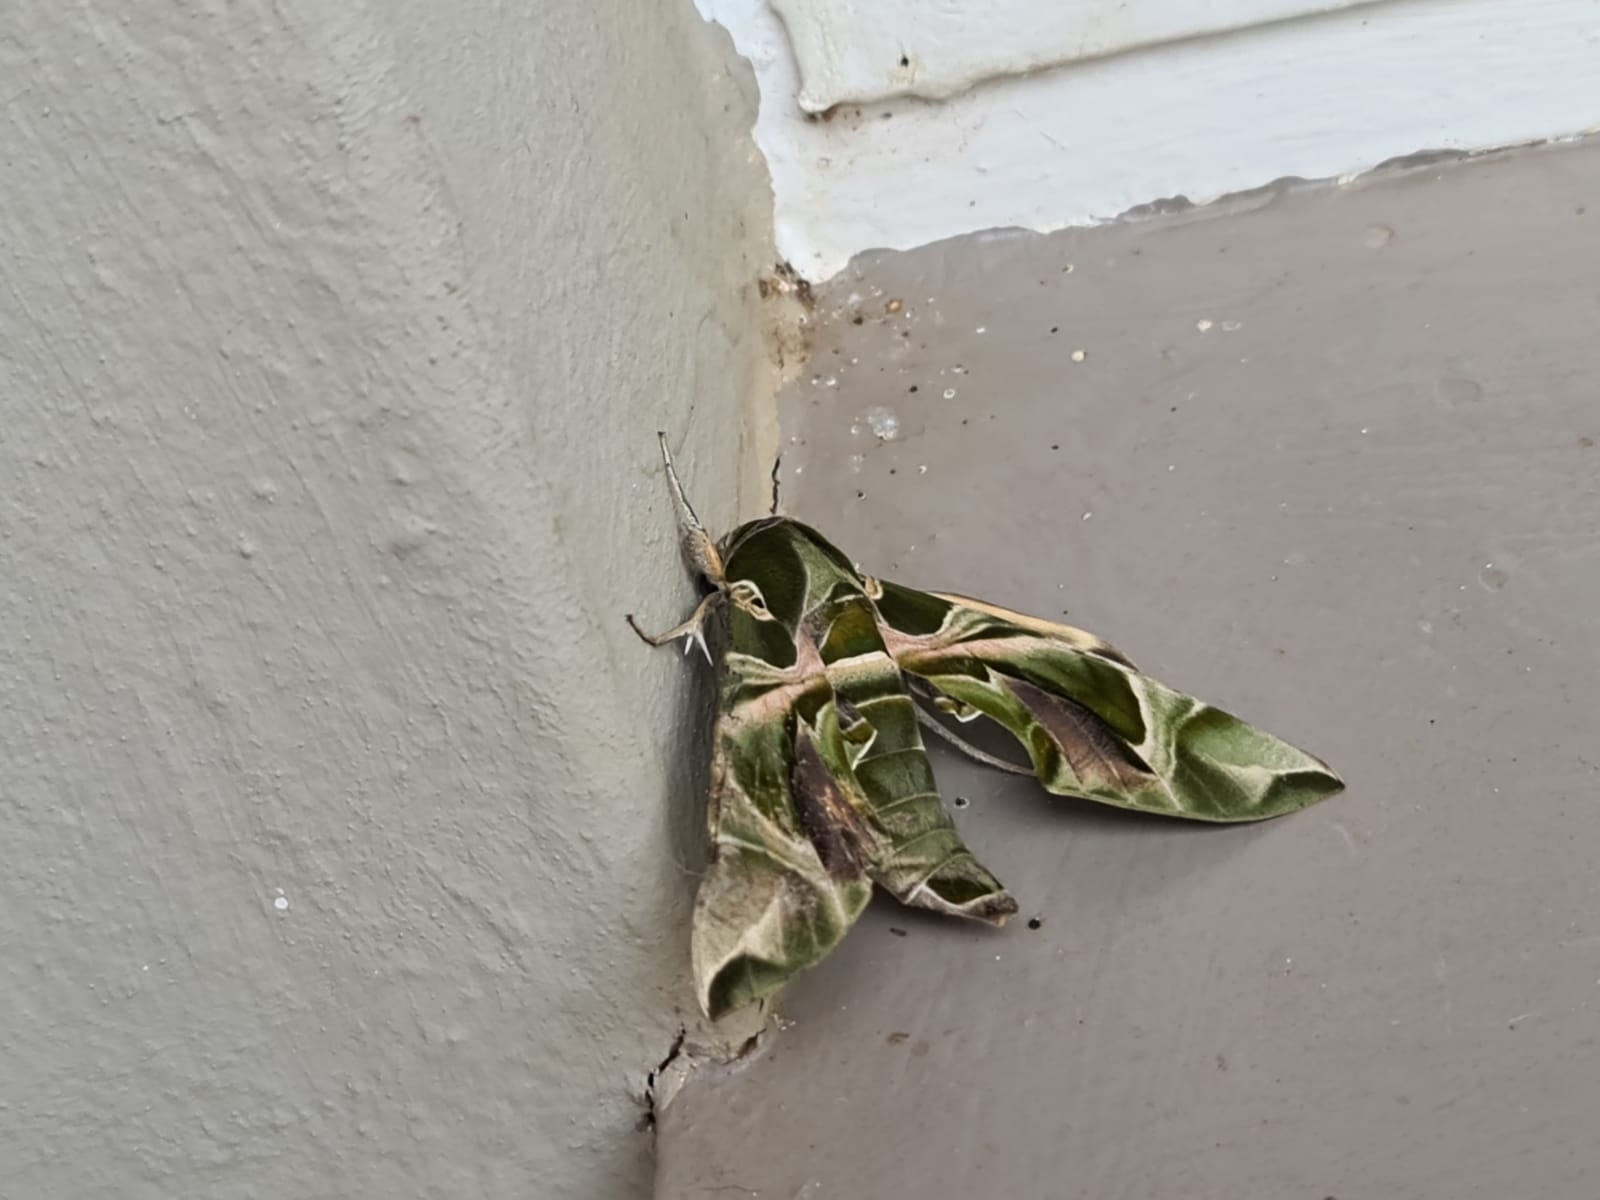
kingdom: Animalia
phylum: Arthropoda
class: Insecta
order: Lepidoptera
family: Sphingidae
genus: Daphnis
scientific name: Daphnis nerii
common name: Oleander hawk-moth
